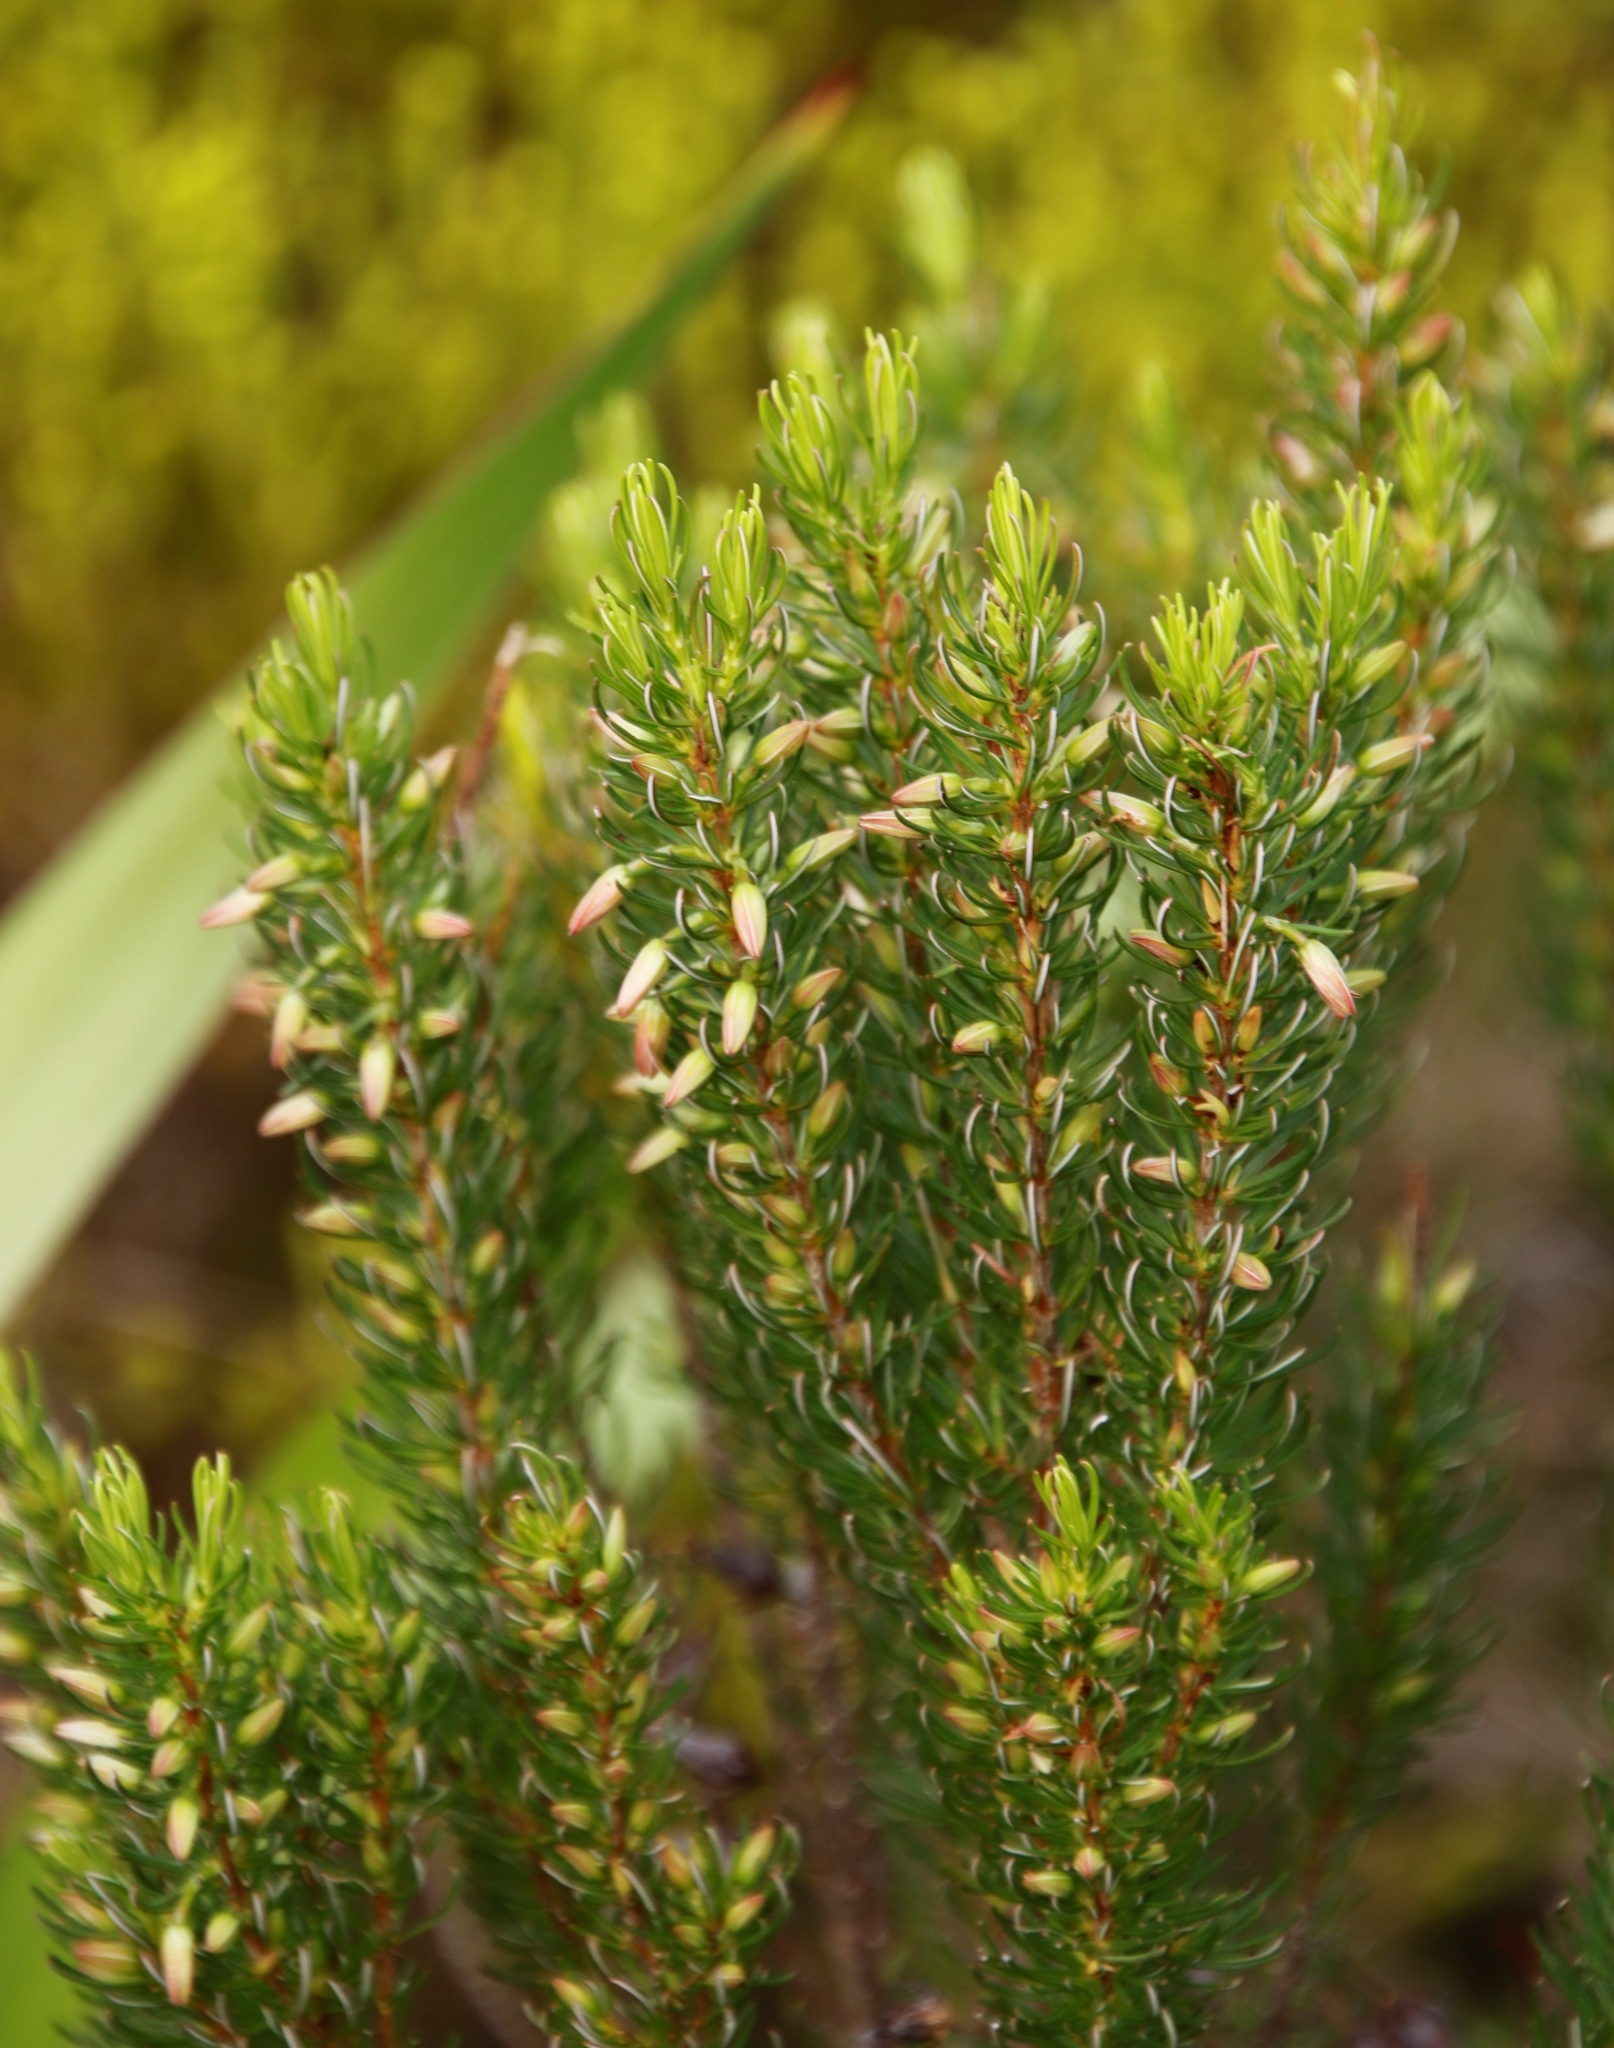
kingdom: Plantae
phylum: Tracheophyta
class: Magnoliopsida
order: Ericales
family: Ericaceae
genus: Erica
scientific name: Erica plukenetii
